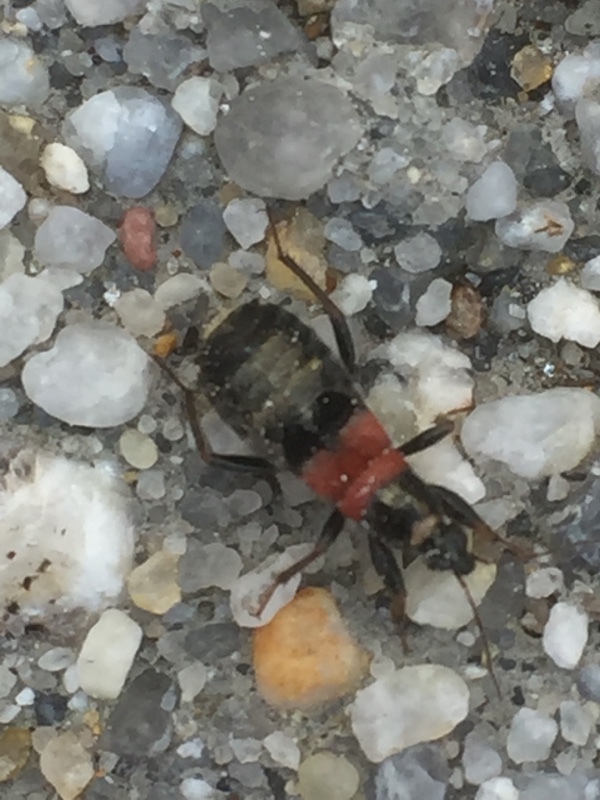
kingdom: Animalia
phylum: Arthropoda
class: Insecta
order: Hemiptera
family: Nabidae
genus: Prostemma
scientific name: Prostemma albimacula
